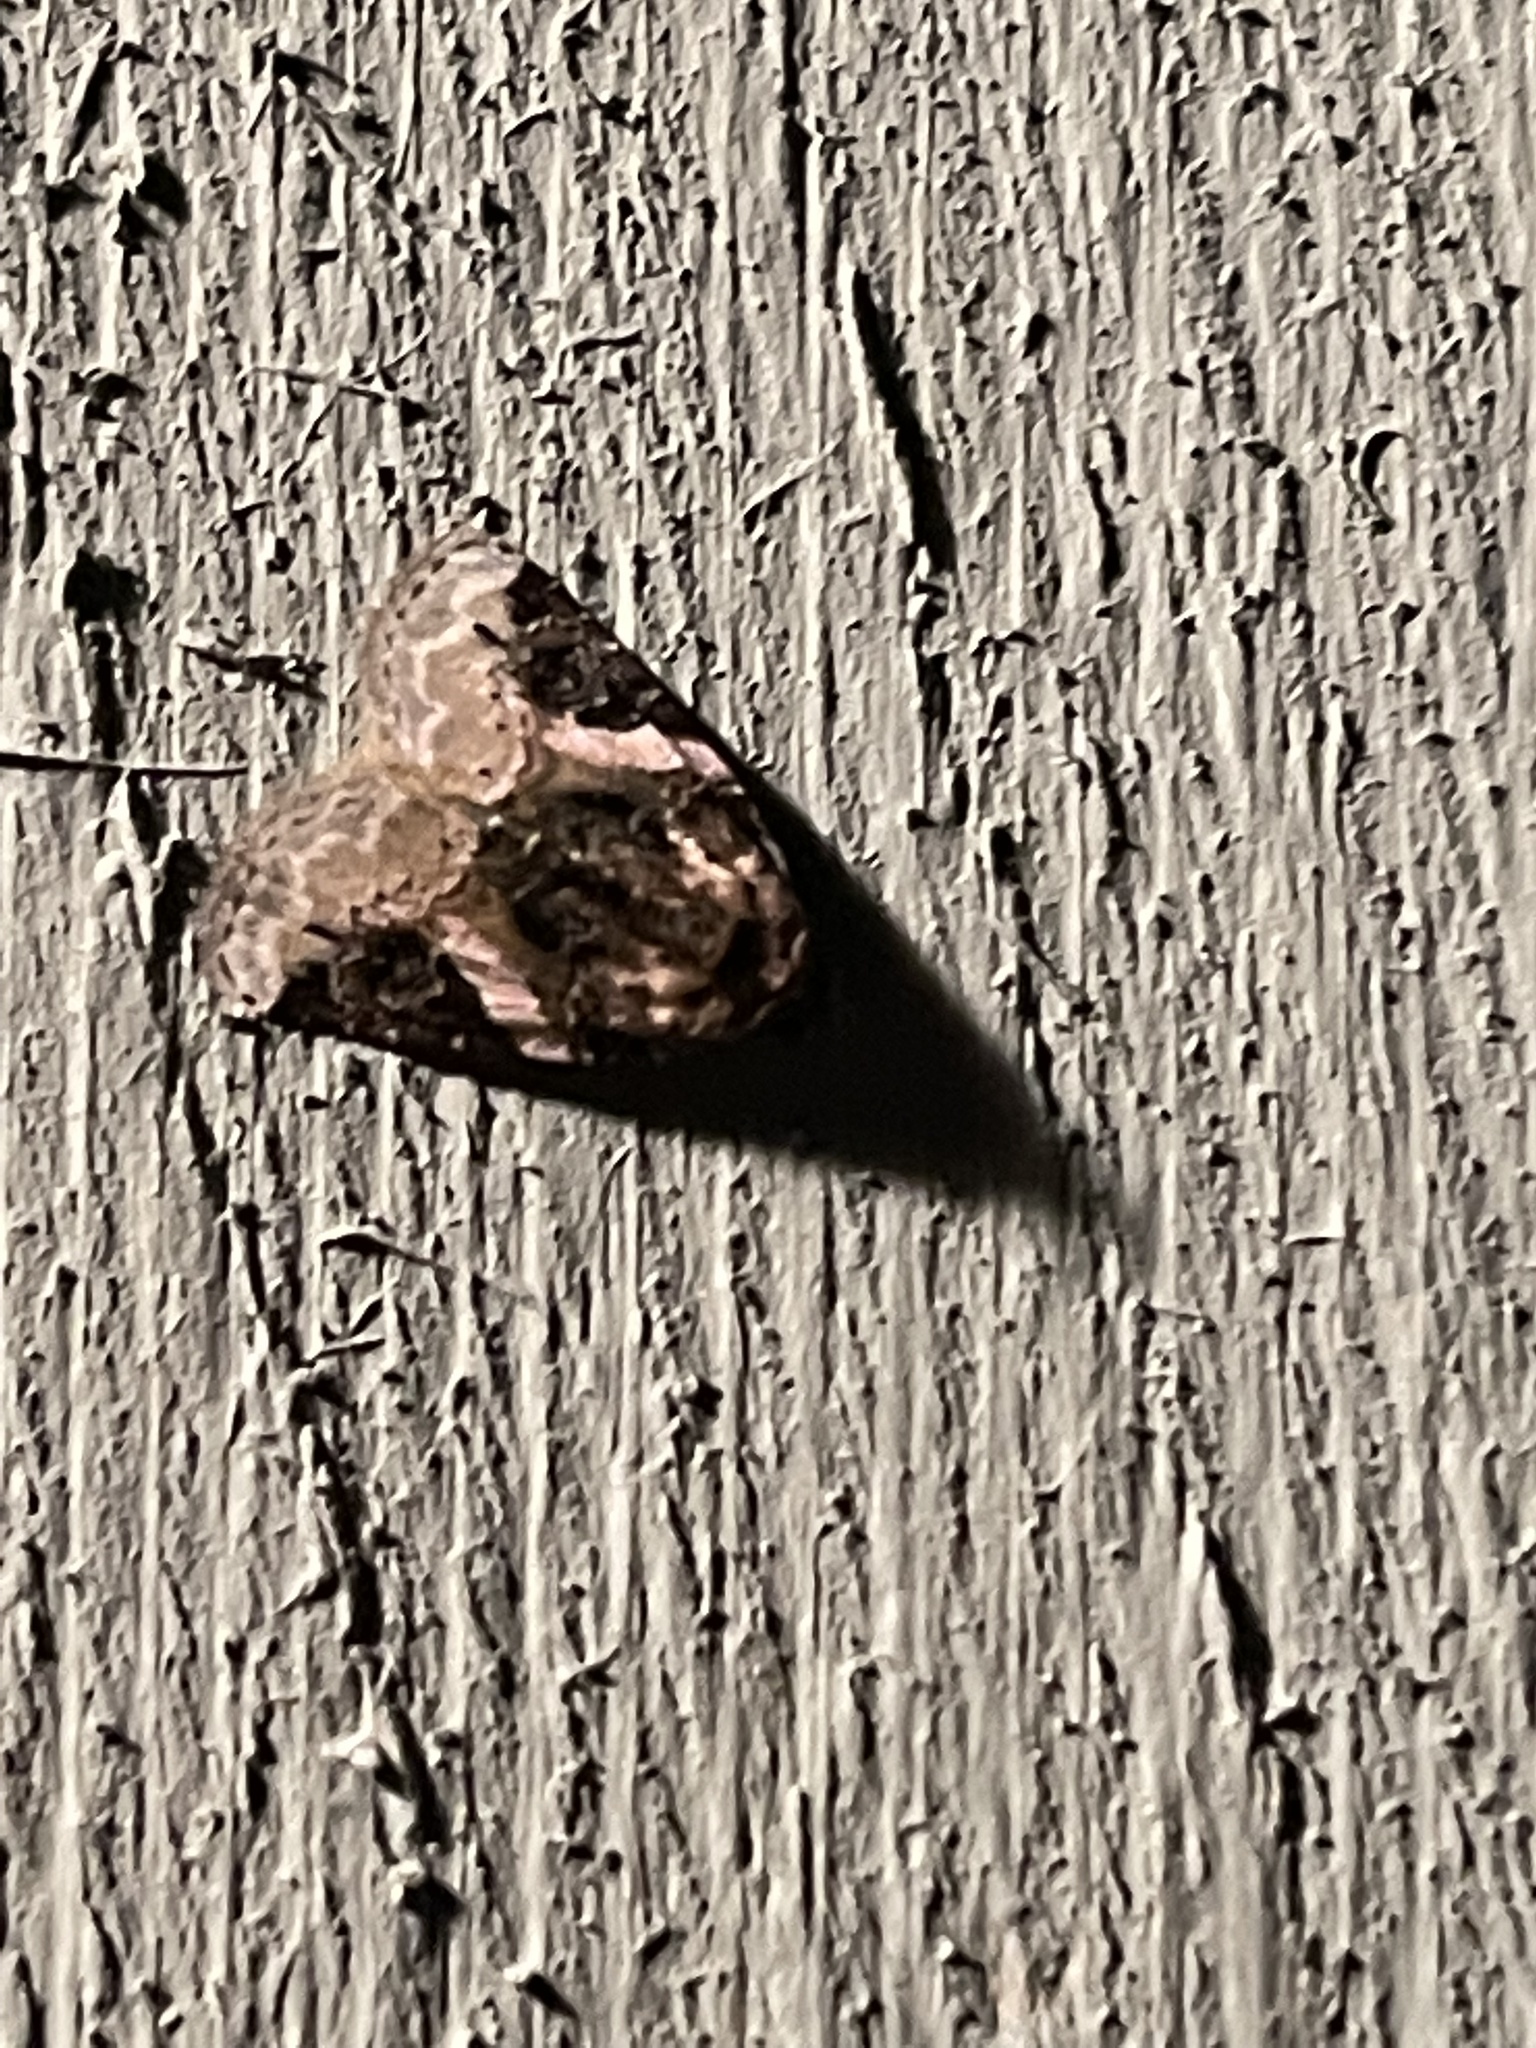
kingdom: Animalia
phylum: Arthropoda
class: Insecta
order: Lepidoptera
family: Noctuidae
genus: Pseudeustrotia
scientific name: Pseudeustrotia carneola
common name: Pink-barred lithacodia moth
